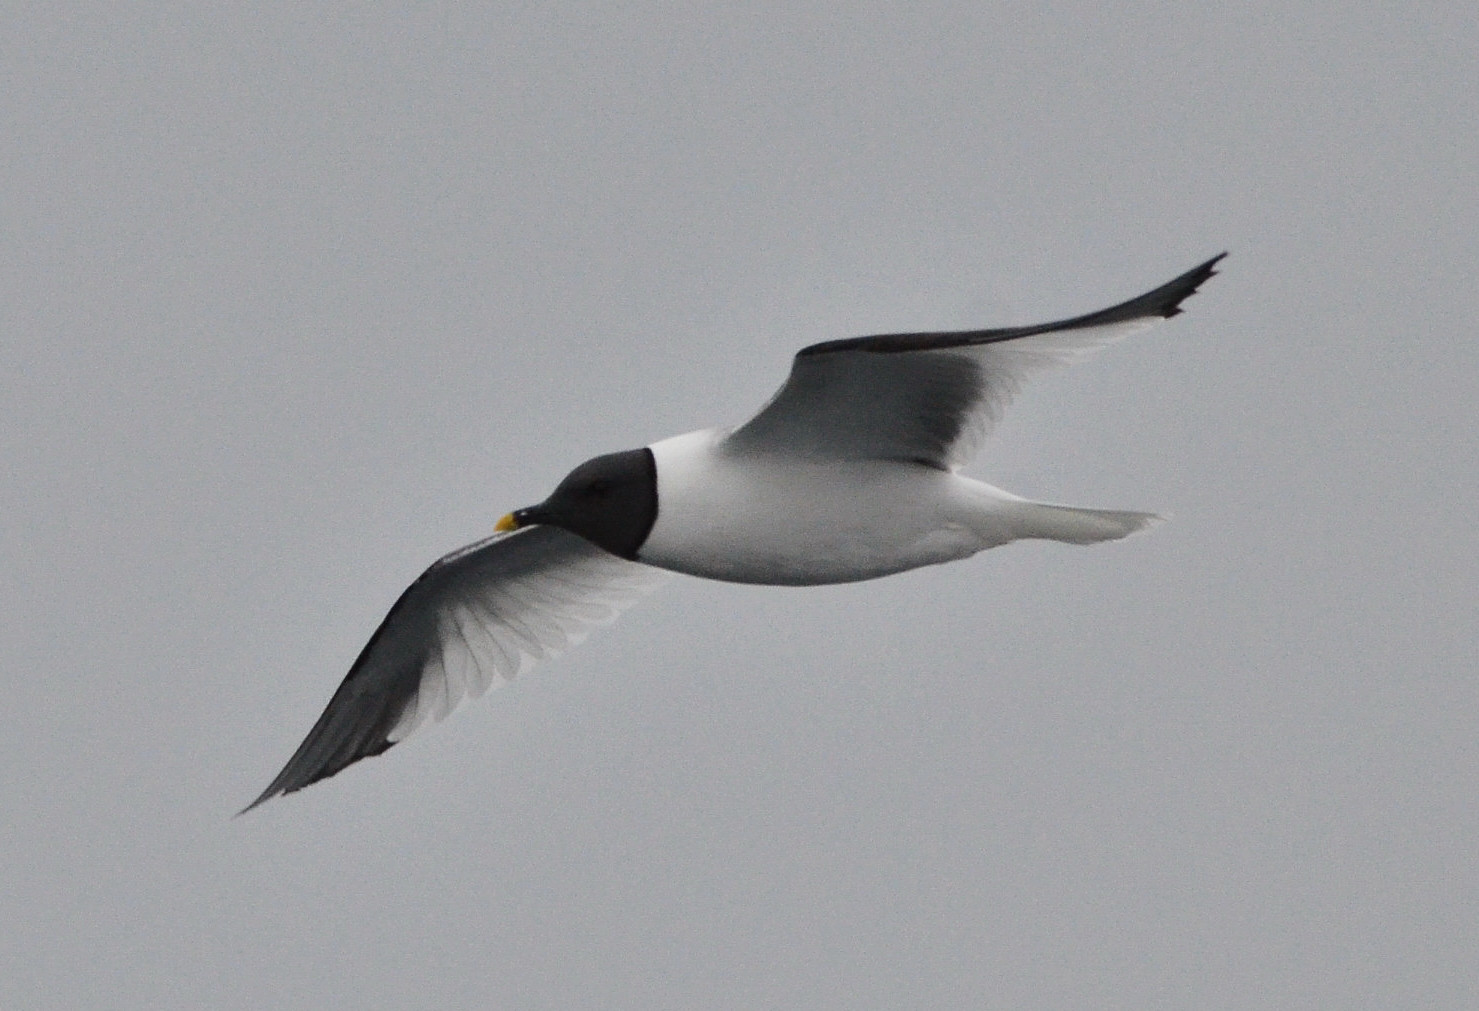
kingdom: Animalia
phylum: Chordata
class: Aves
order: Charadriiformes
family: Laridae
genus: Xema
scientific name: Xema sabini
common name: Sabine's gull
